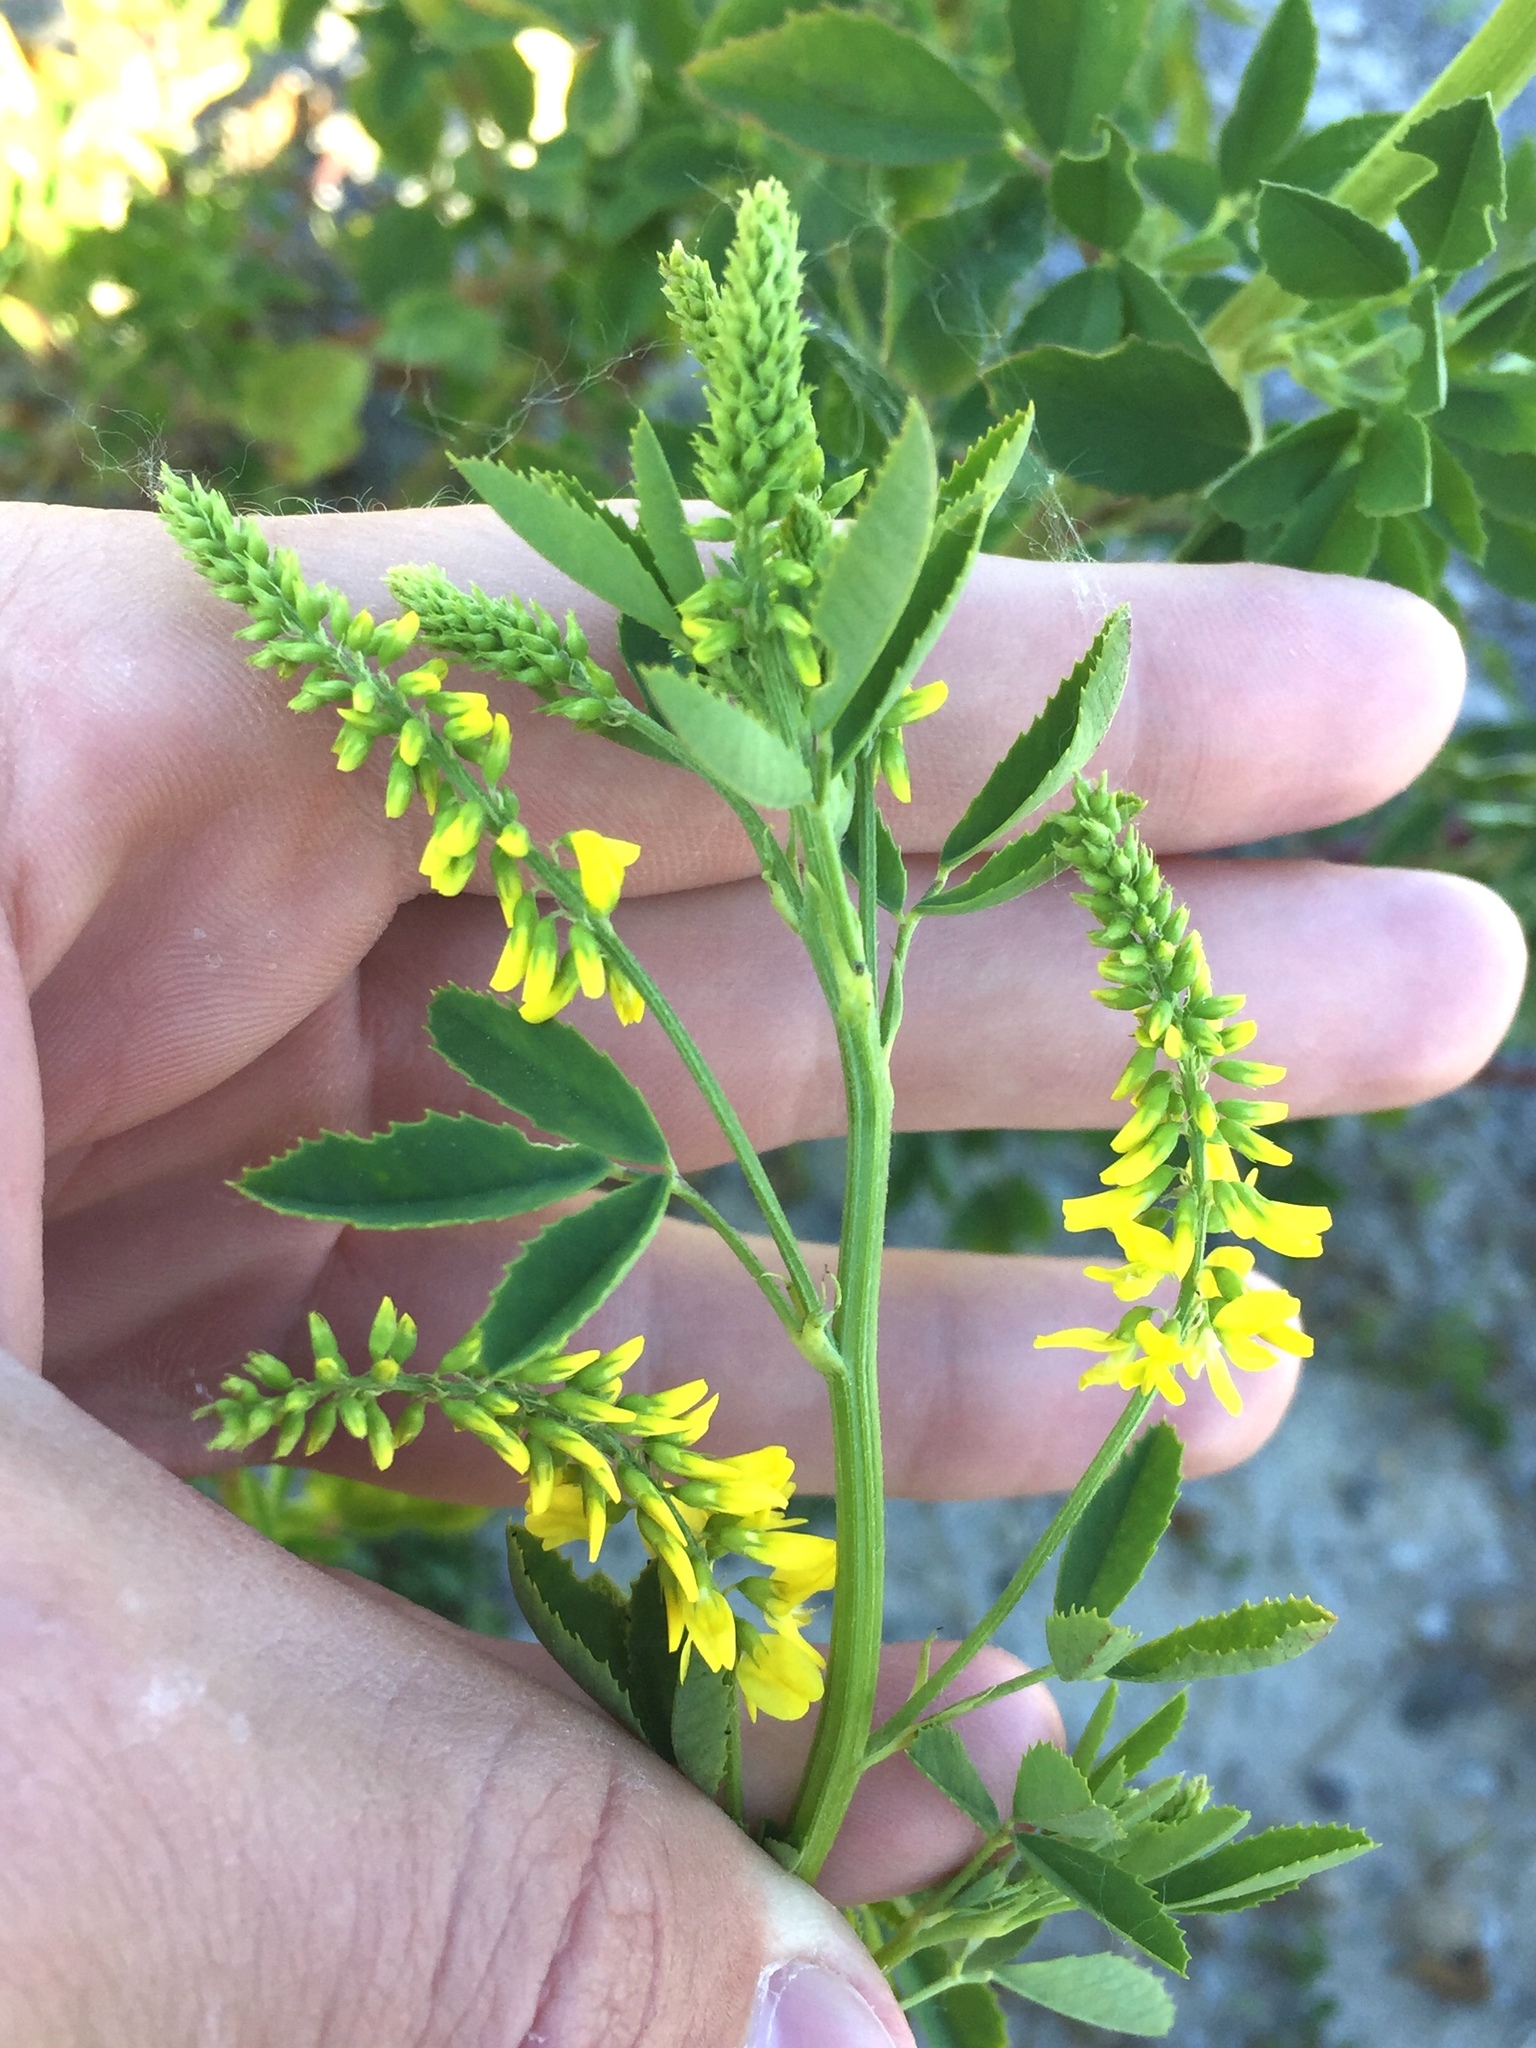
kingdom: Plantae
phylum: Tracheophyta
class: Magnoliopsida
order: Fabales
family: Fabaceae
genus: Melilotus
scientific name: Melilotus officinalis
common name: Sweetclover
